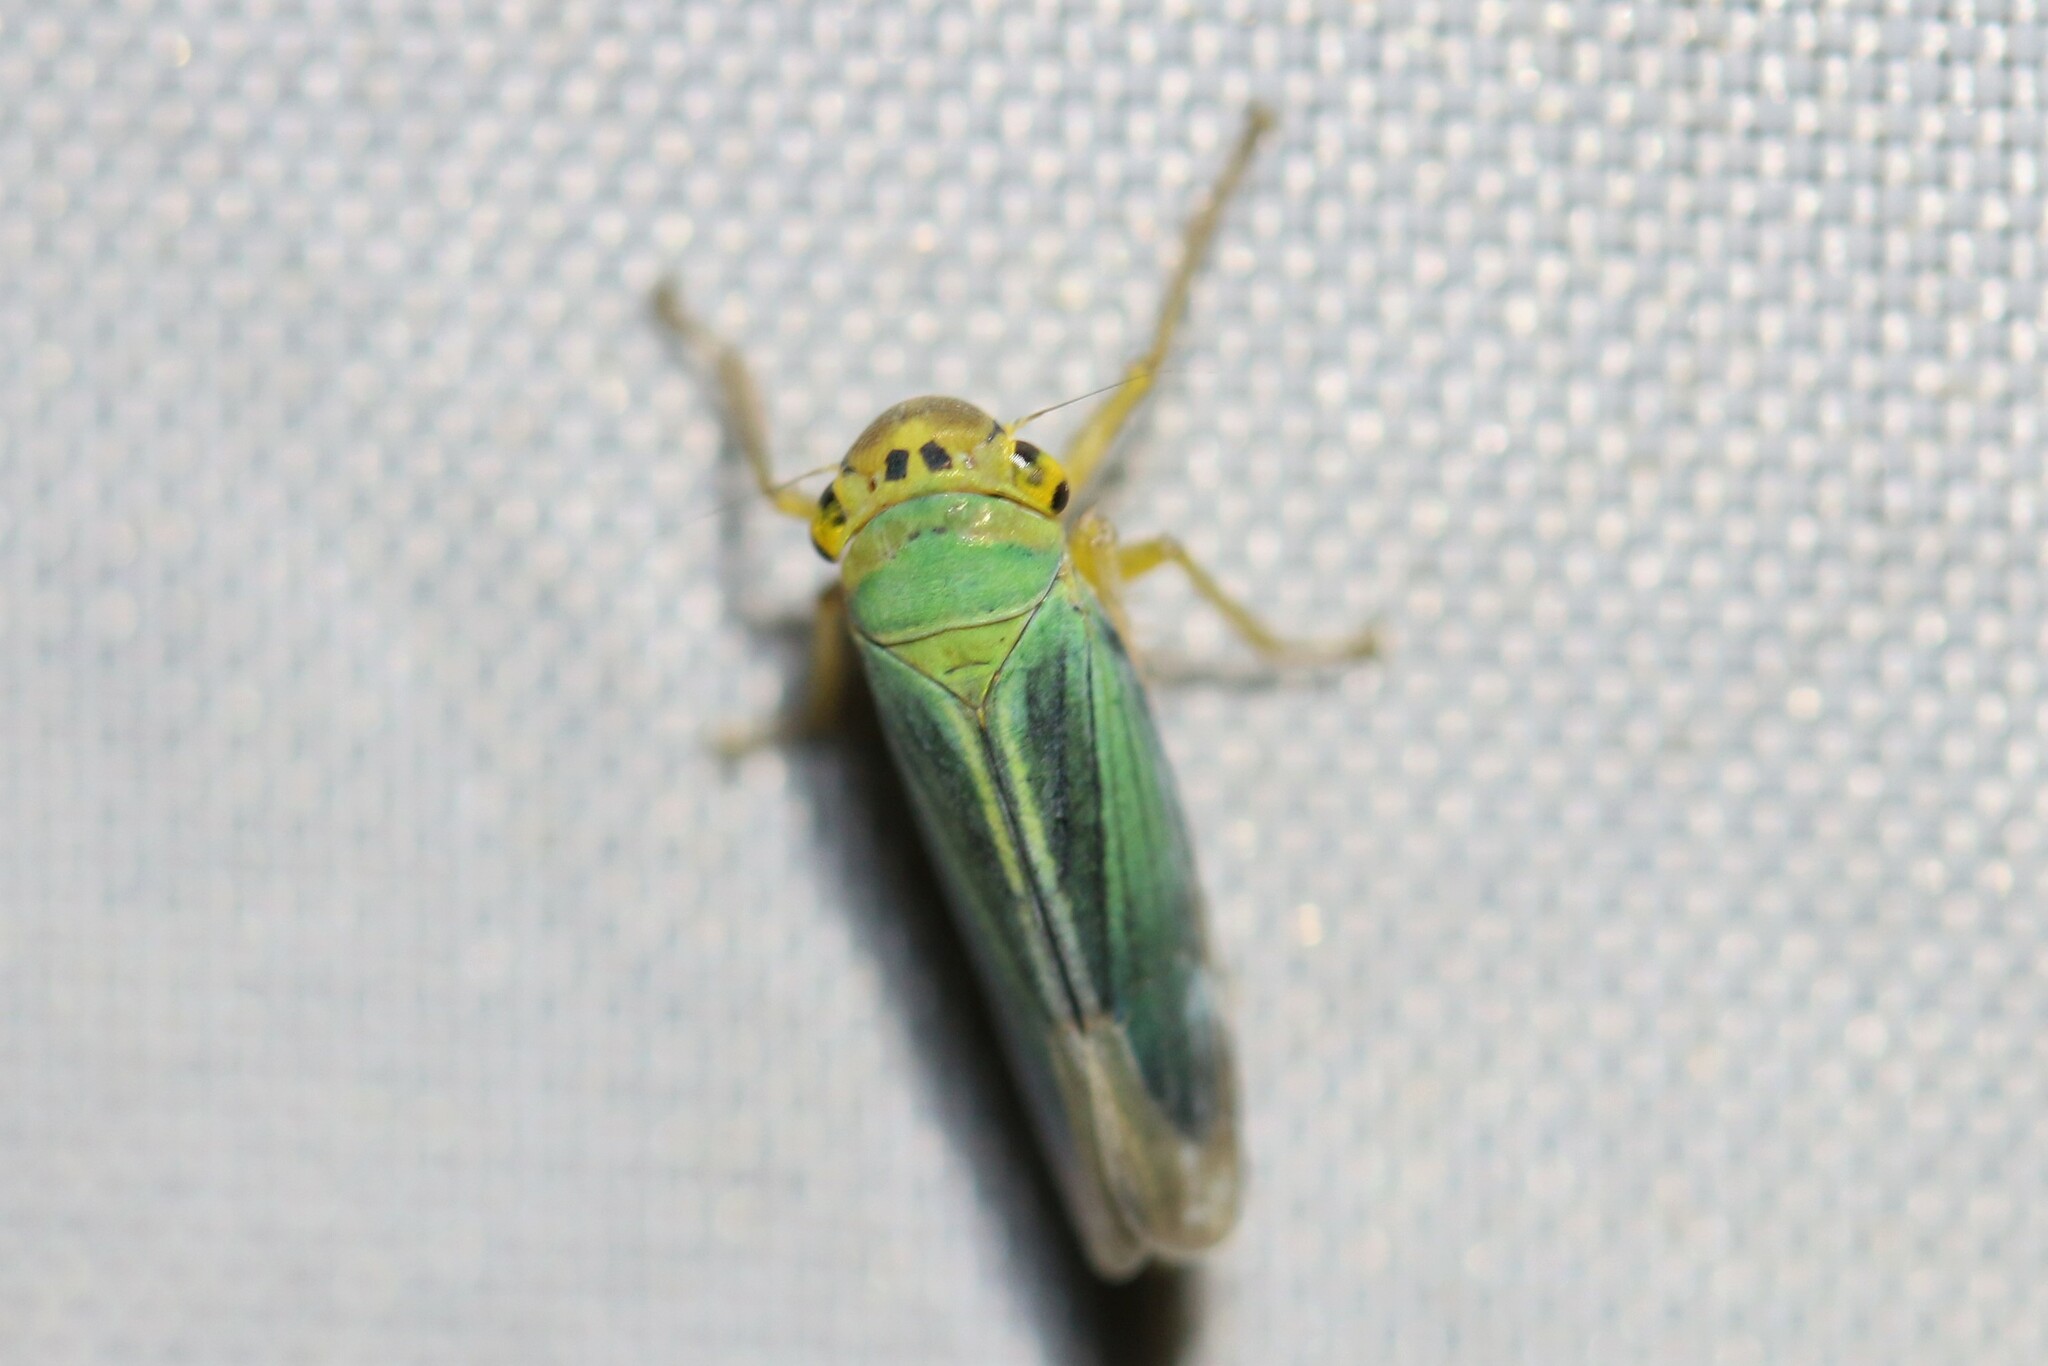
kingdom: Animalia
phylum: Arthropoda
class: Insecta
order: Hemiptera
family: Cicadellidae
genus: Cicadella
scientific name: Cicadella viridis
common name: Leafhopper
